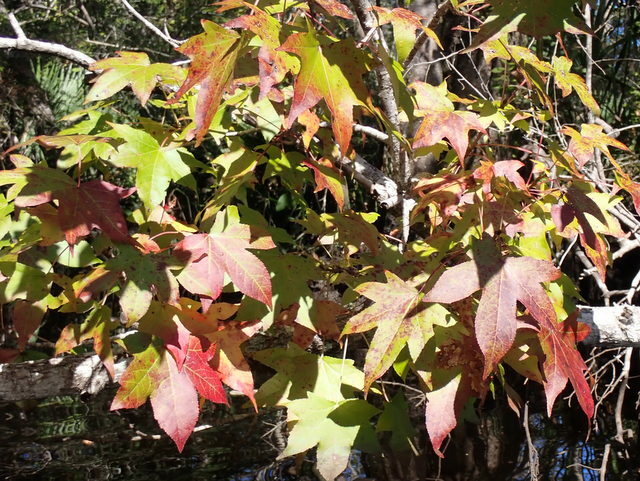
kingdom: Plantae
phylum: Tracheophyta
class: Magnoliopsida
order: Saxifragales
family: Altingiaceae
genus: Liquidambar
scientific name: Liquidambar styraciflua
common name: Sweet gum
